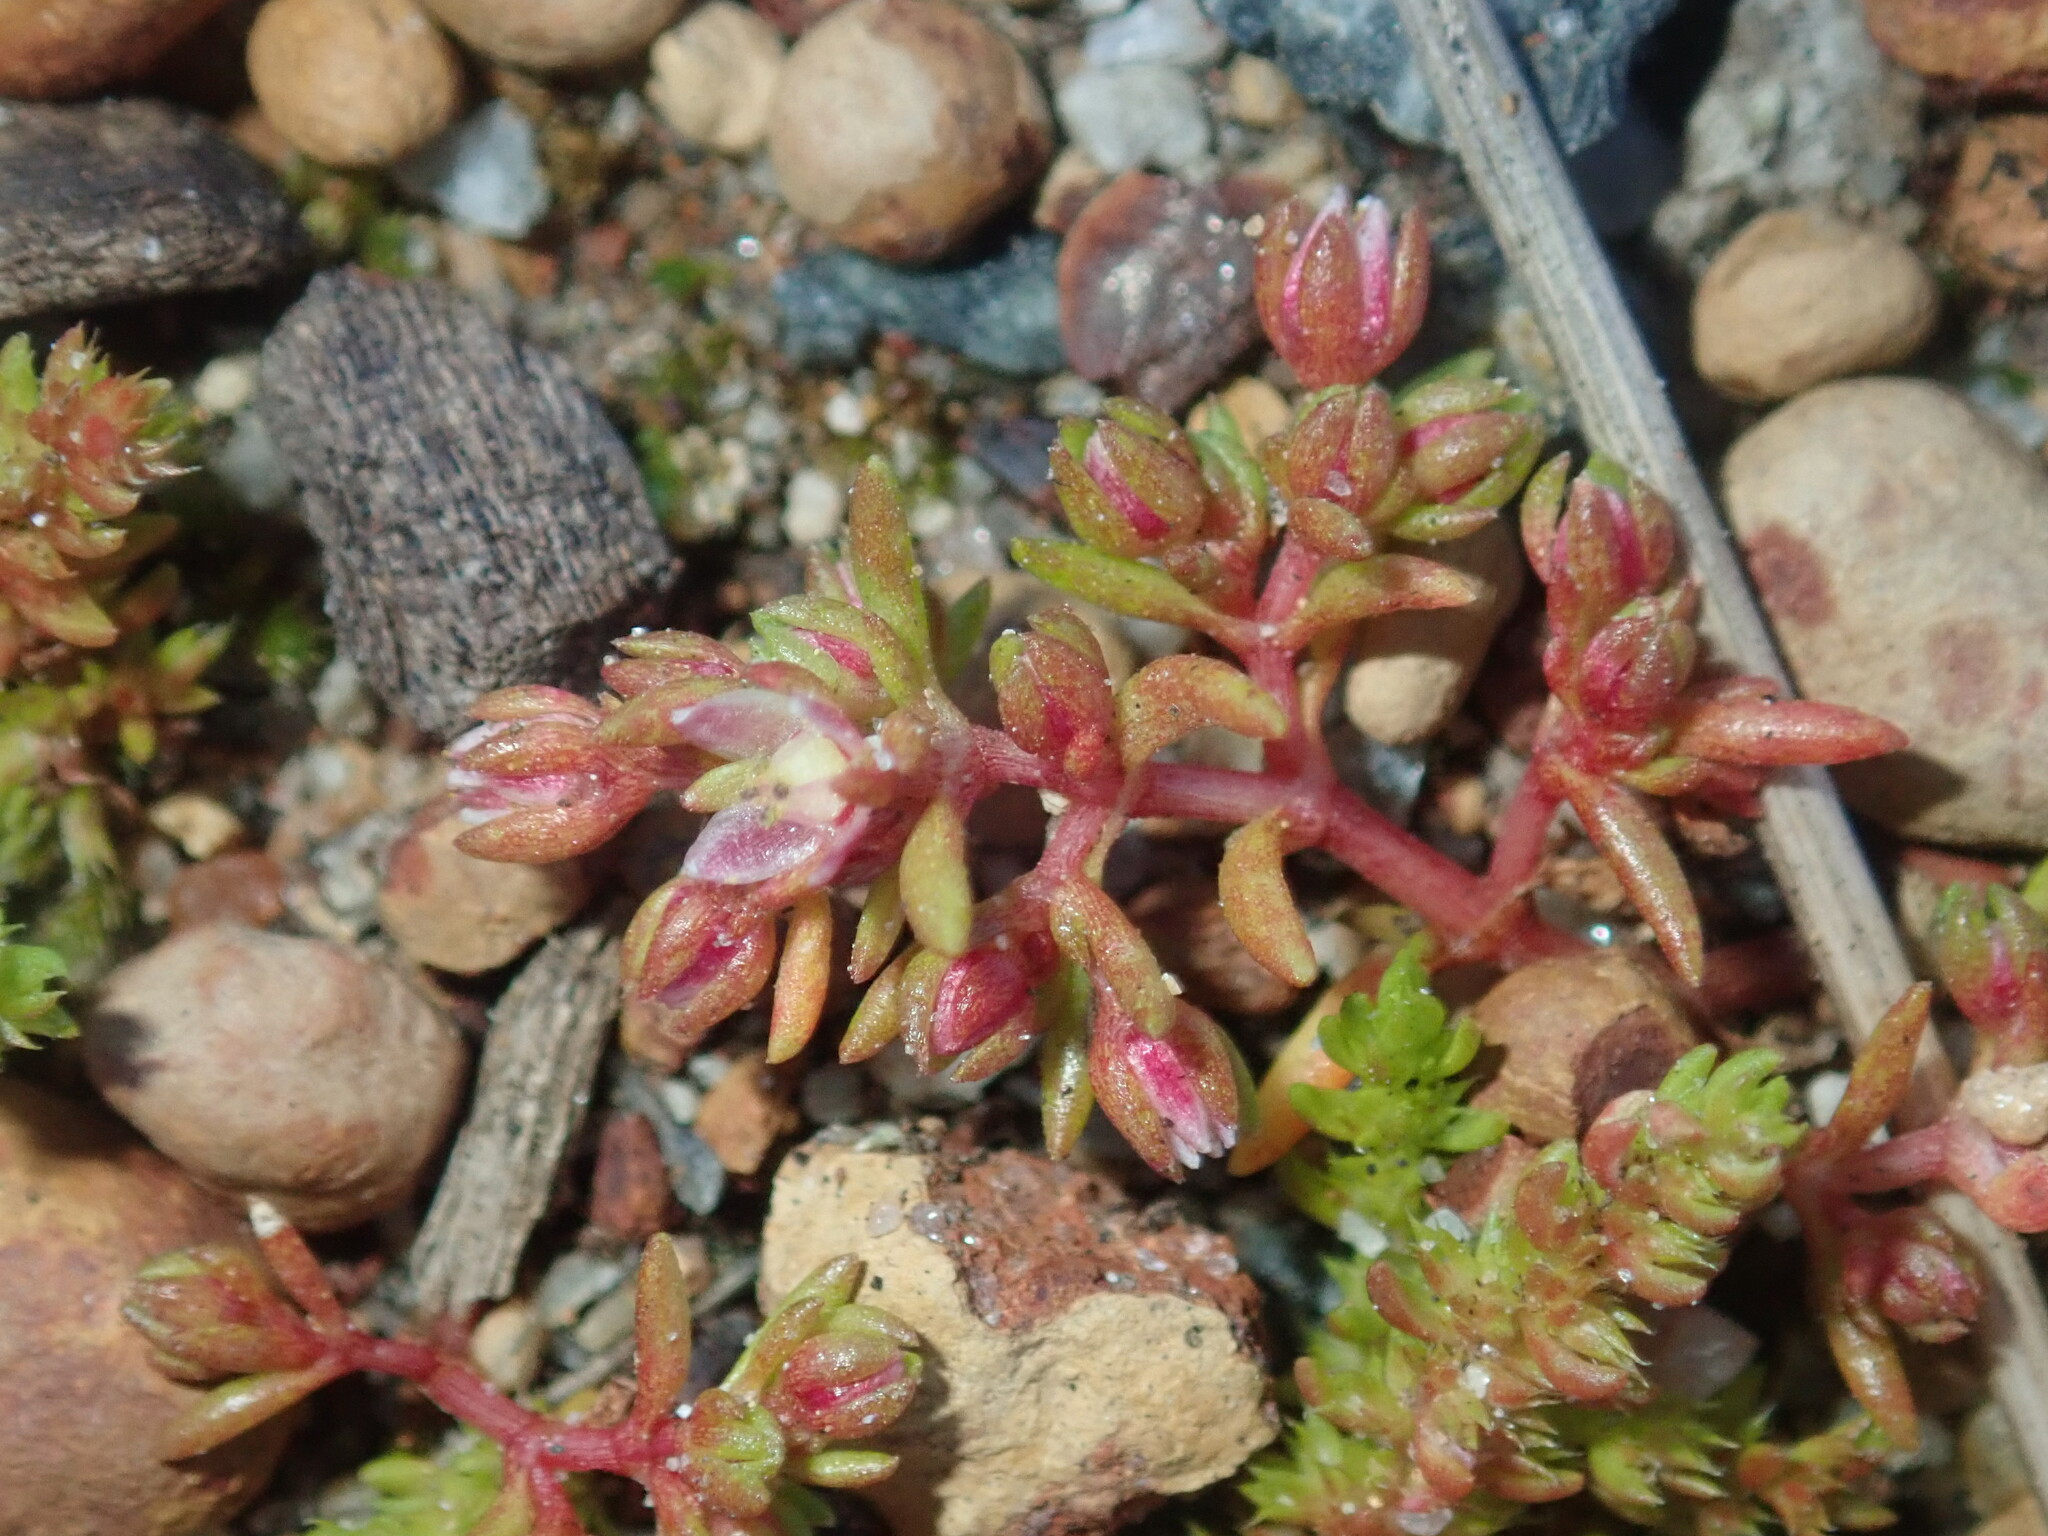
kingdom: Plantae
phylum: Tracheophyta
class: Magnoliopsida
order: Saxifragales
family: Crassulaceae
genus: Crassula
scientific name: Crassula decumbens
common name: Scilly pigmyweed
